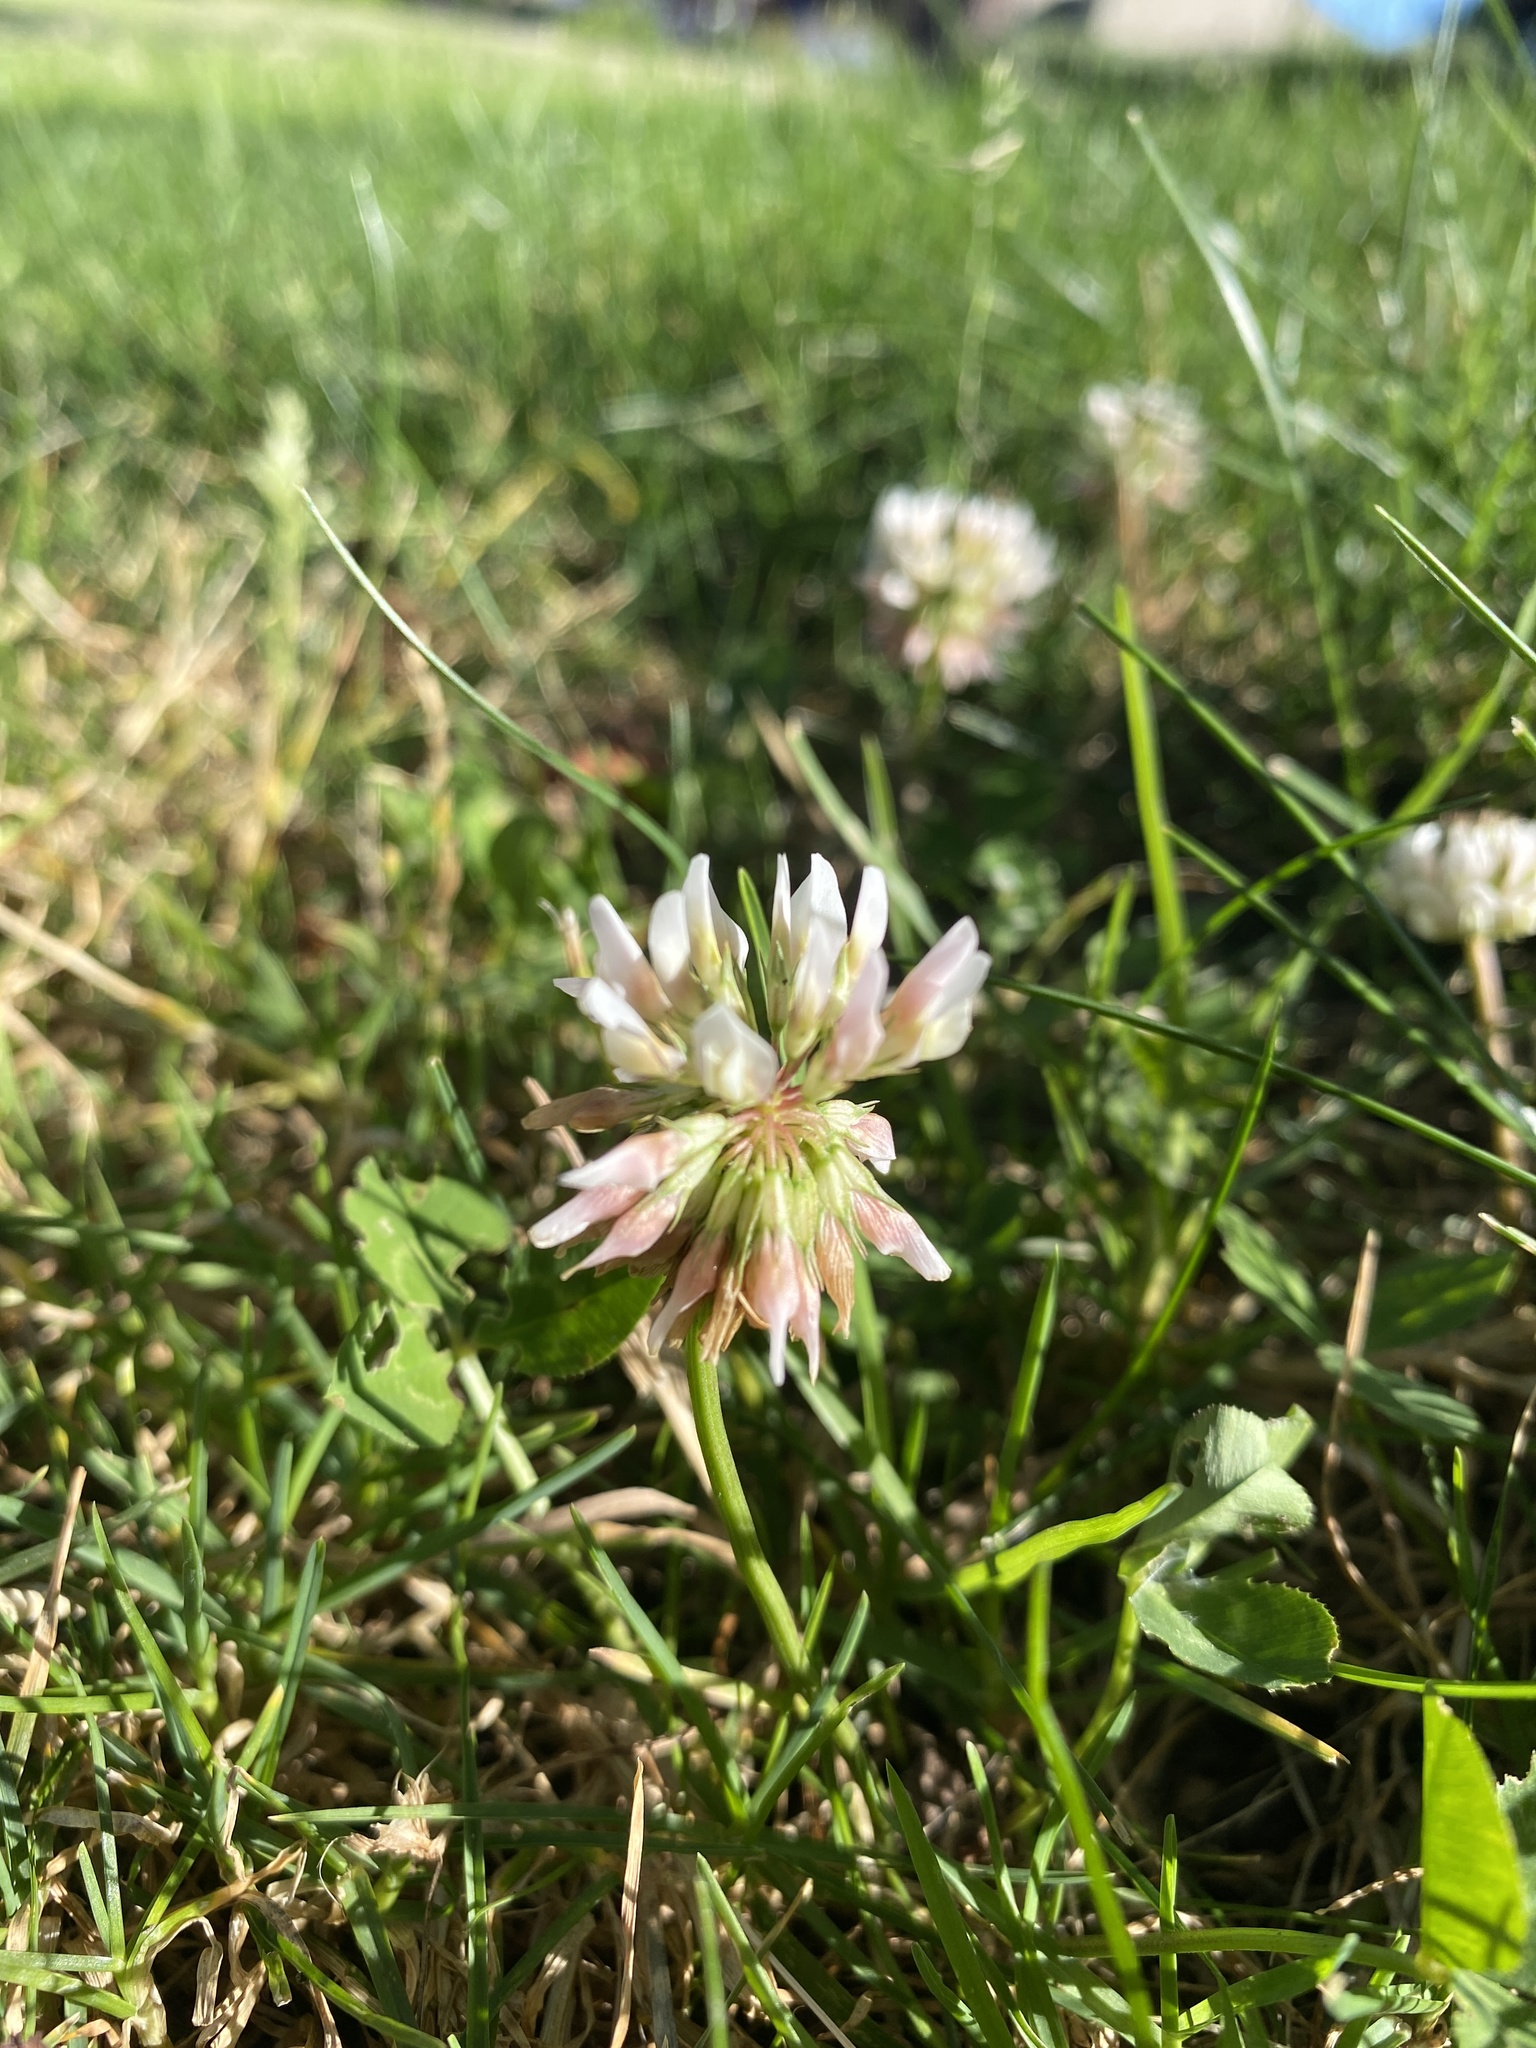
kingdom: Plantae
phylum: Tracheophyta
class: Magnoliopsida
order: Fabales
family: Fabaceae
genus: Trifolium
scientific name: Trifolium repens
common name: White clover
